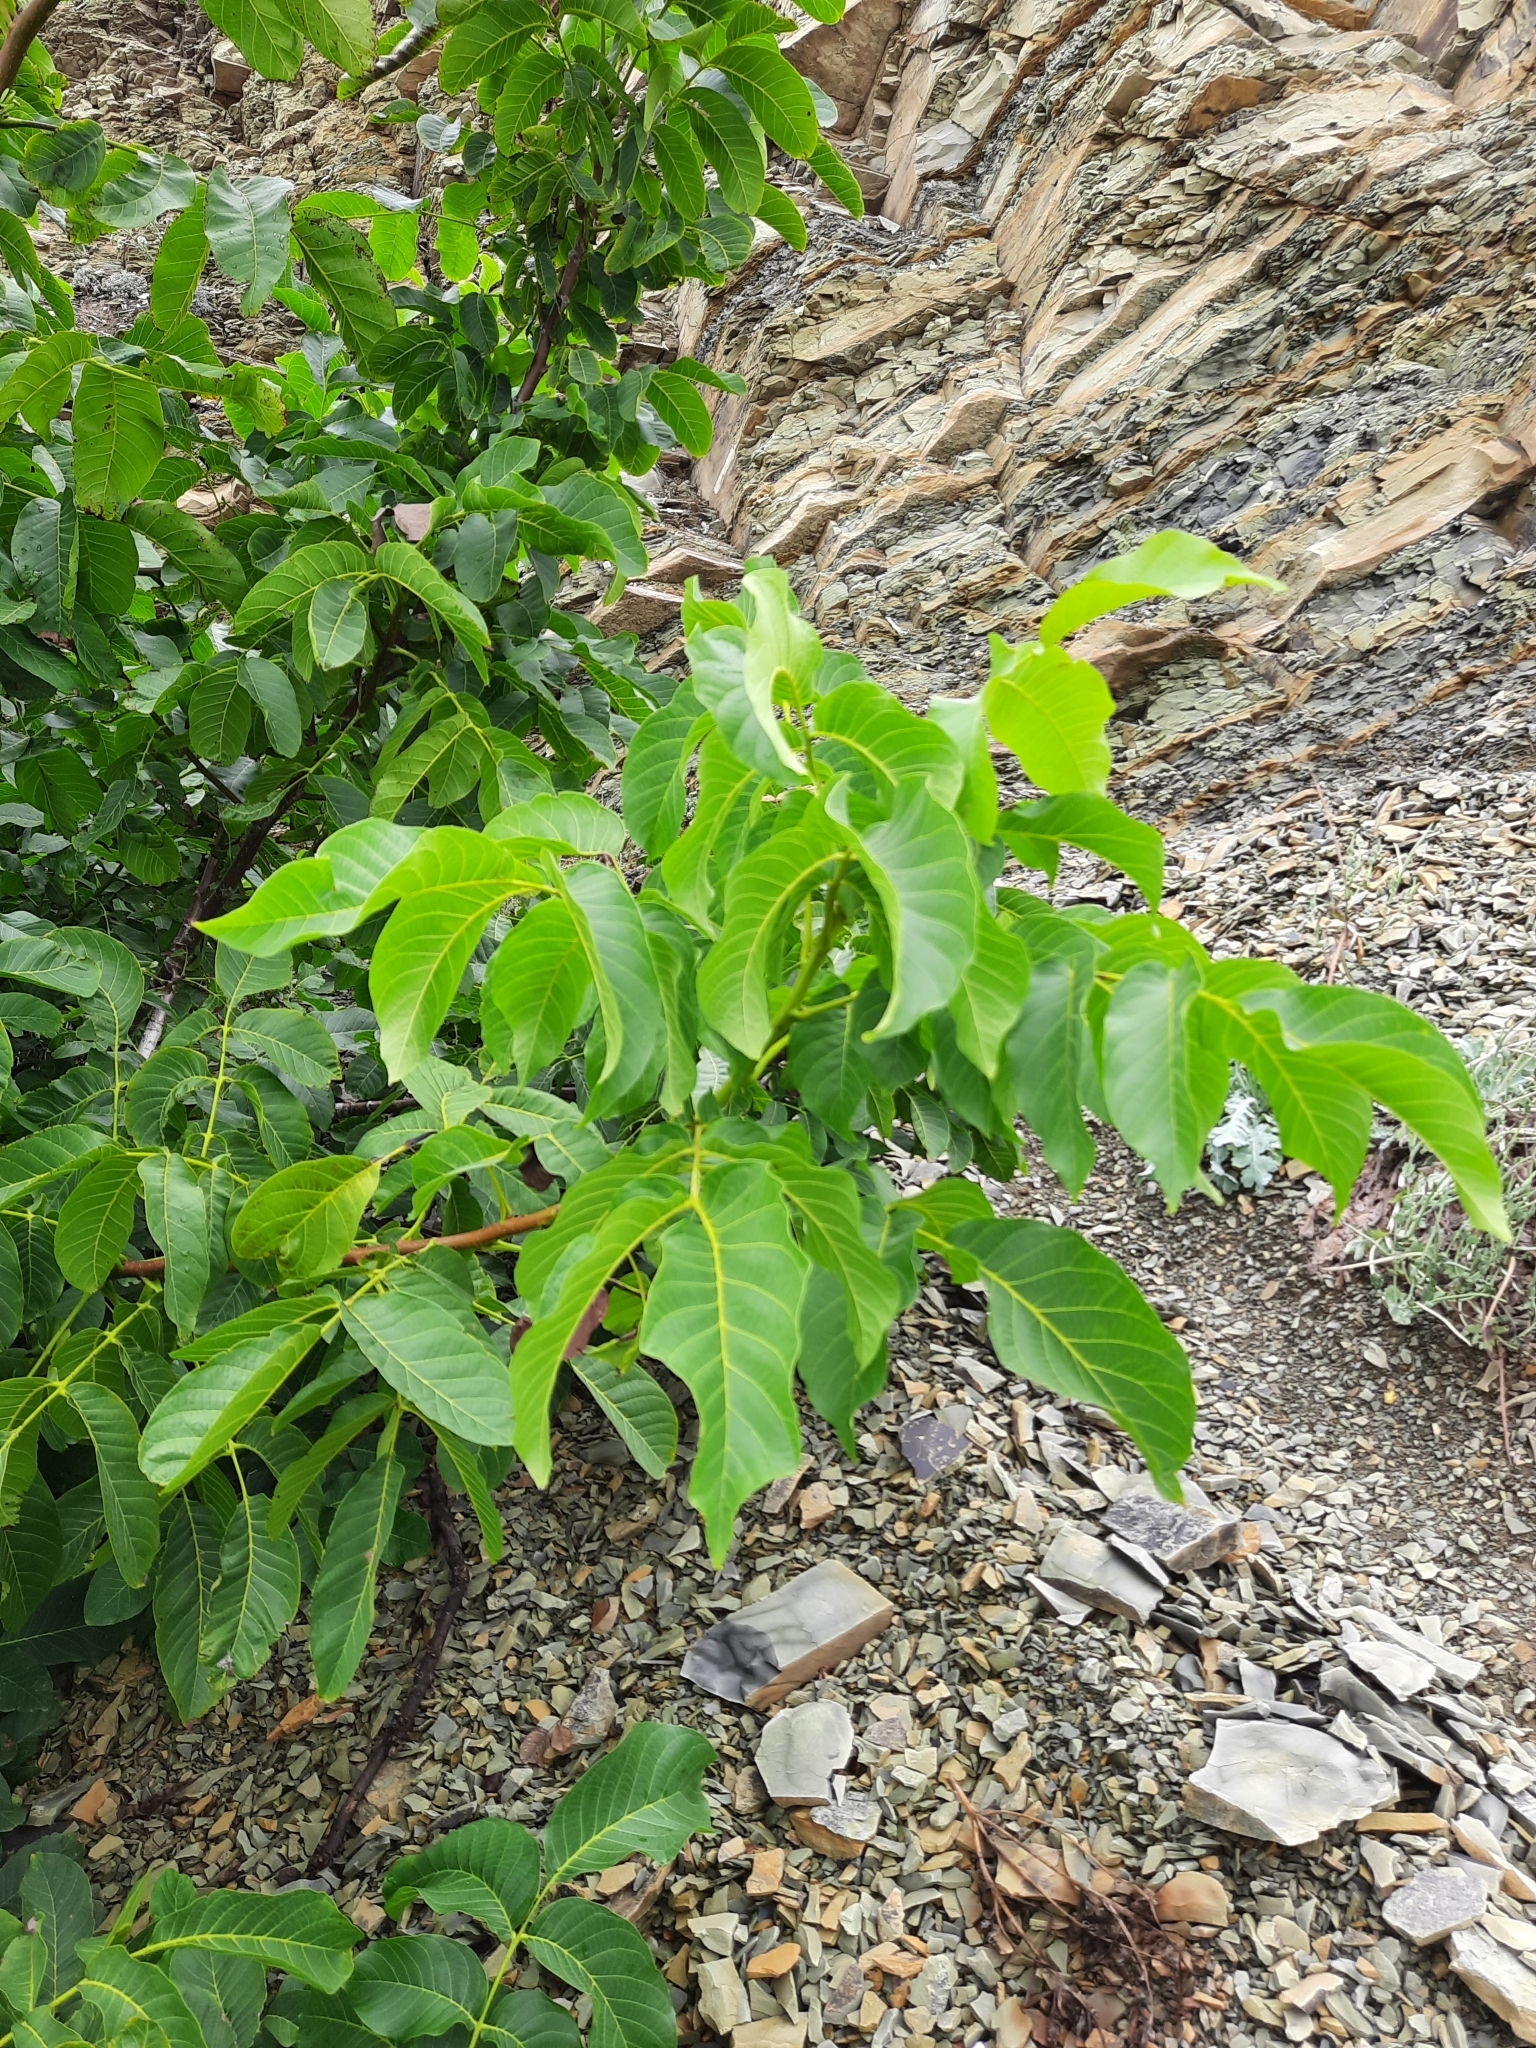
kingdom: Plantae
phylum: Tracheophyta
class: Magnoliopsida
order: Fagales
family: Juglandaceae
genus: Juglans
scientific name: Juglans regia
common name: Walnut
